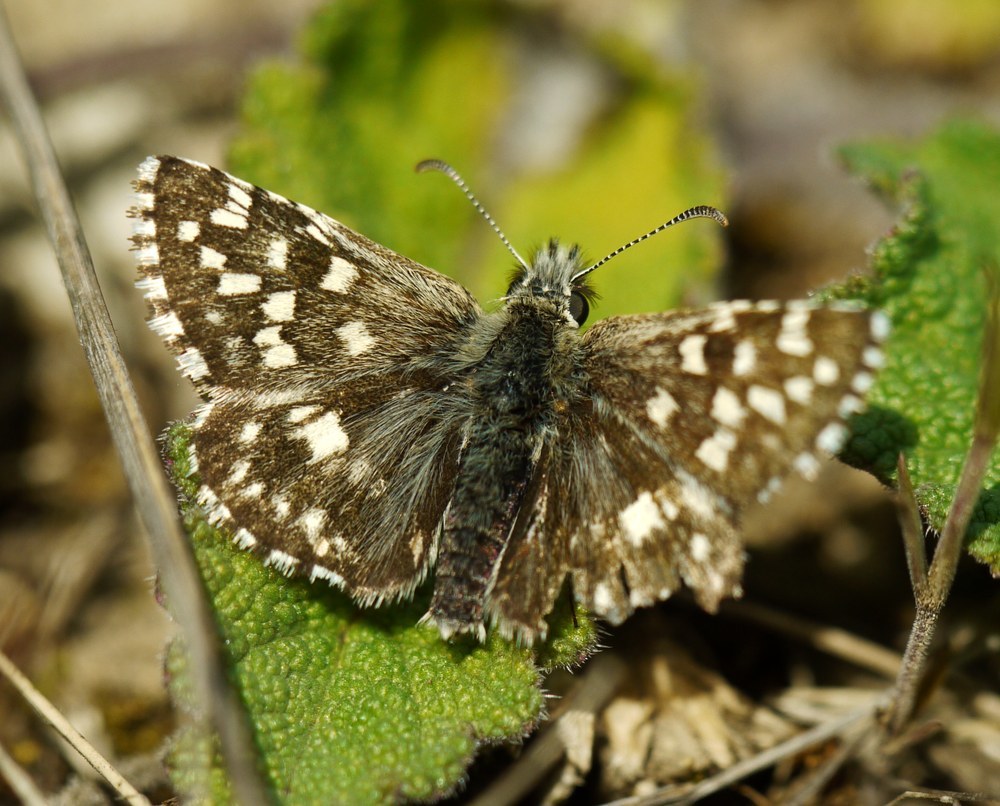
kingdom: Animalia
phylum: Arthropoda
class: Insecta
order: Lepidoptera
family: Hesperiidae
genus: Pyrgus
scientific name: Pyrgus malvae
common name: Grizzled skipper
